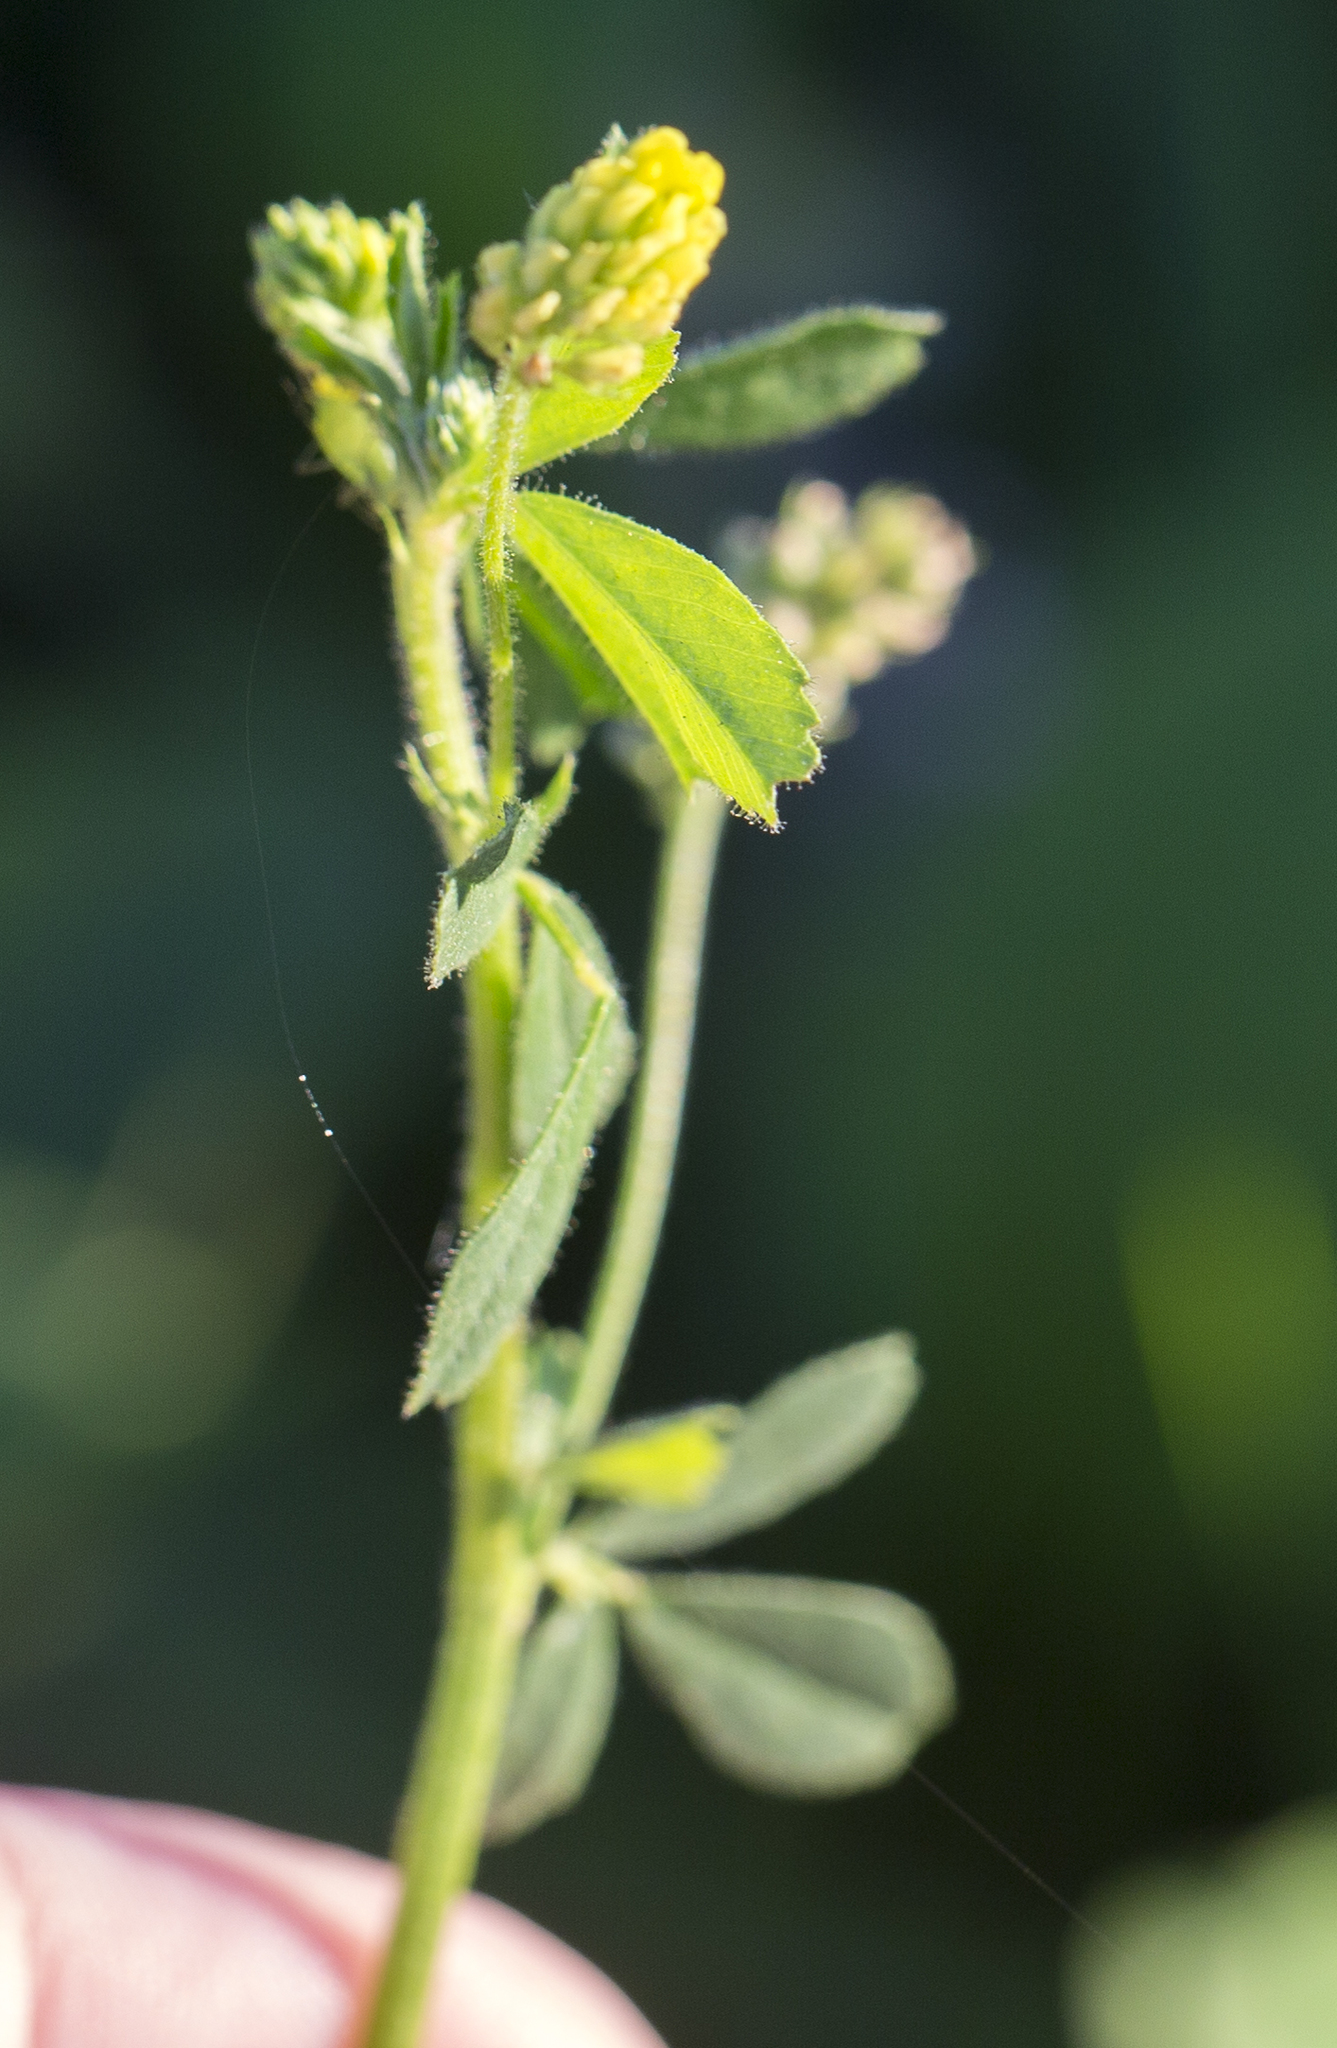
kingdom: Plantae
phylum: Tracheophyta
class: Magnoliopsida
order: Fabales
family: Fabaceae
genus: Medicago
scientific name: Medicago lupulina
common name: Black medick
